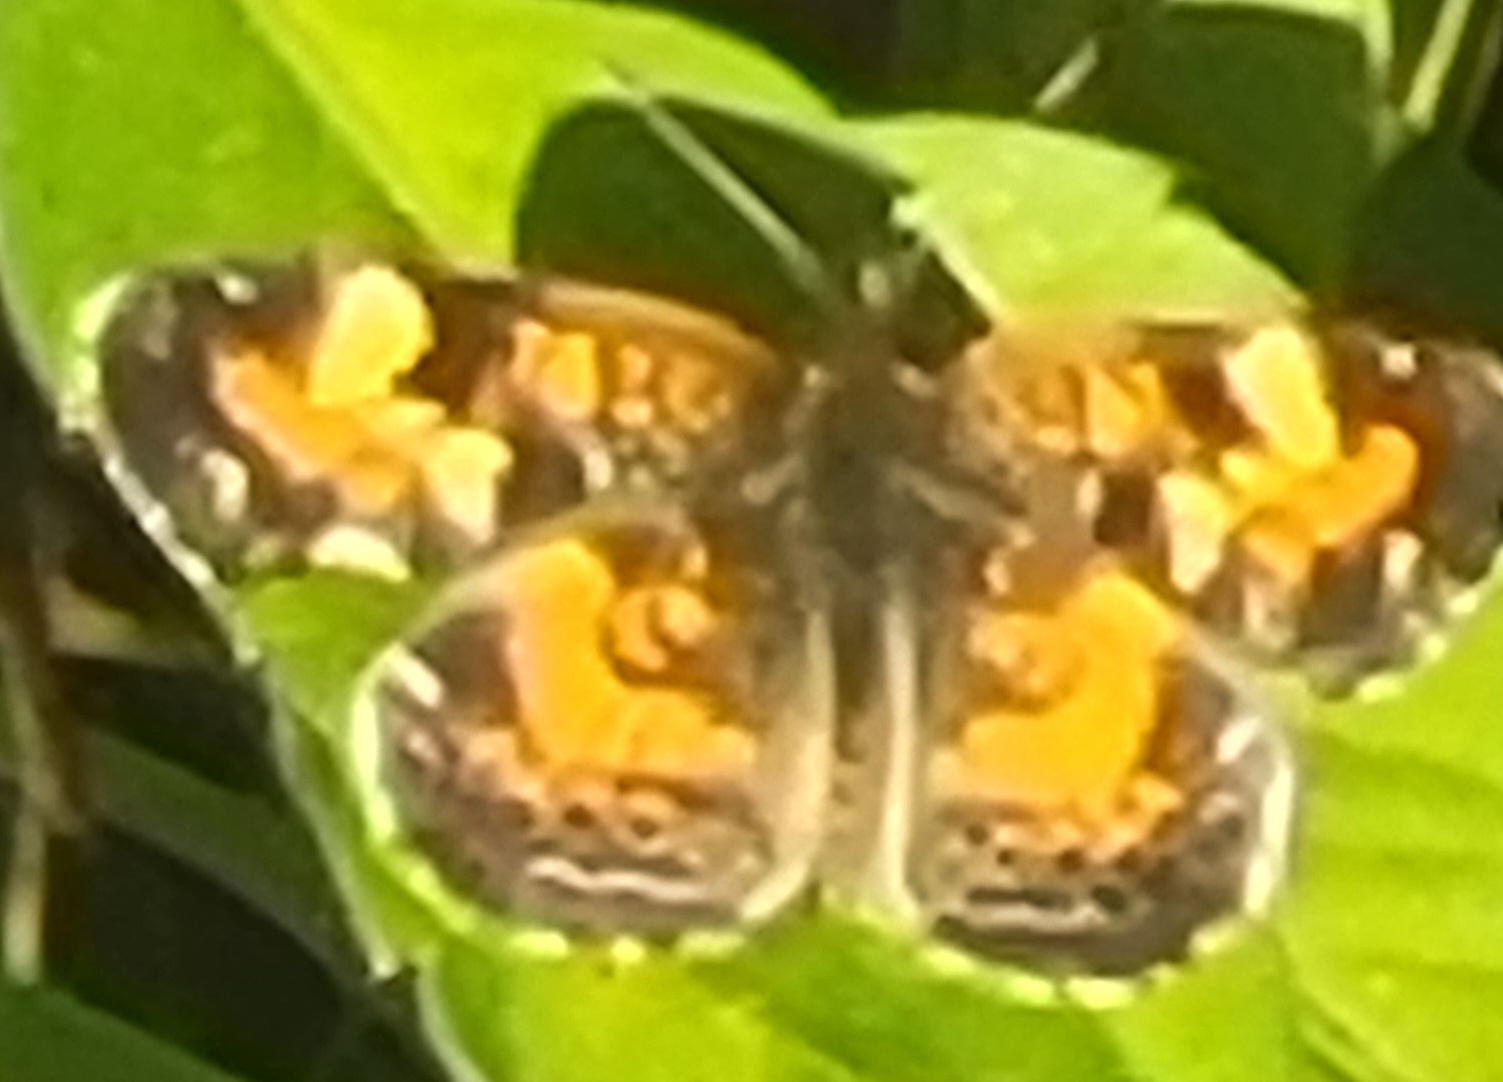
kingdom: Animalia
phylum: Arthropoda
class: Insecta
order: Lepidoptera
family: Nymphalidae
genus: Phyciodes
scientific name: Phyciodes phaon
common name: Phaon crescent
